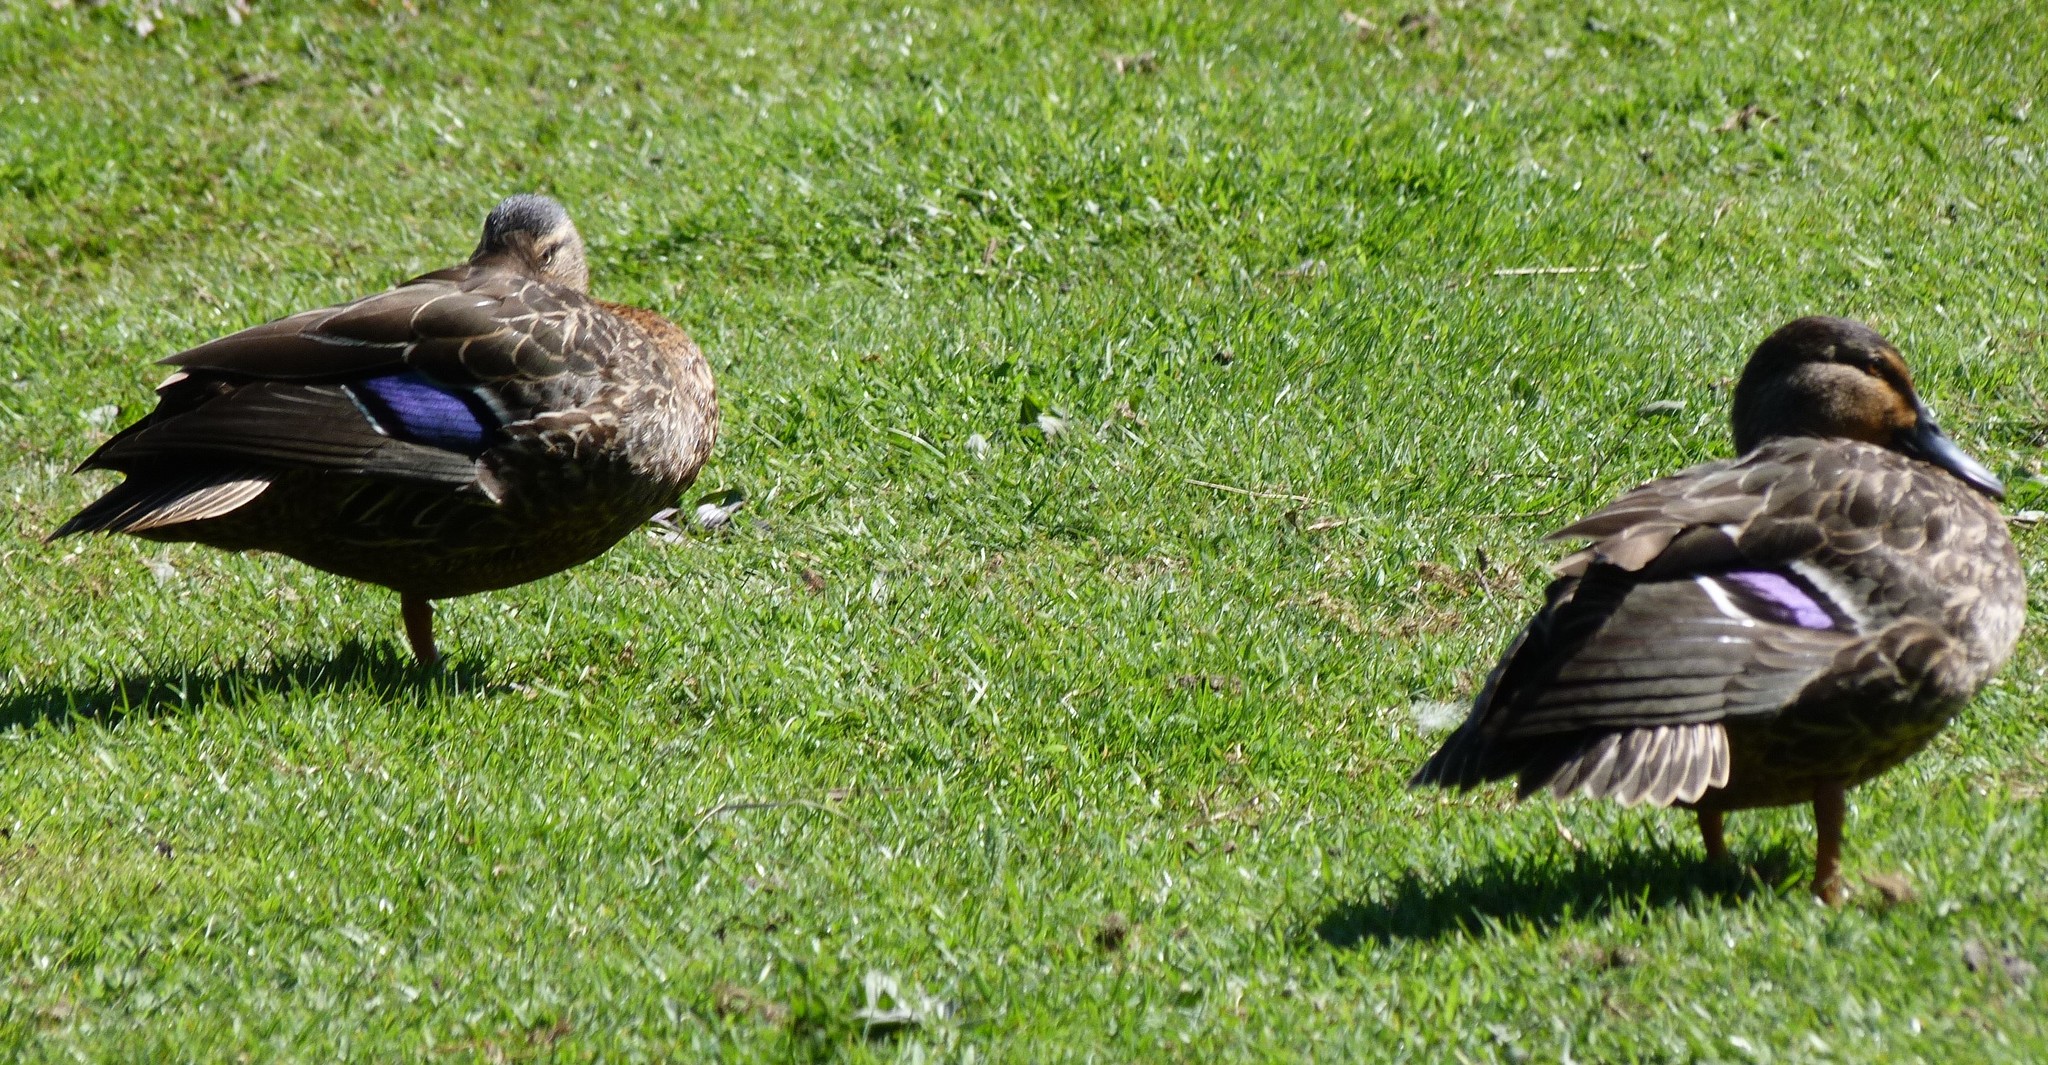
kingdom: Animalia
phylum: Chordata
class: Aves
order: Anseriformes
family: Anatidae
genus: Anas
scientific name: Anas platyrhynchos
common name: Mallard
